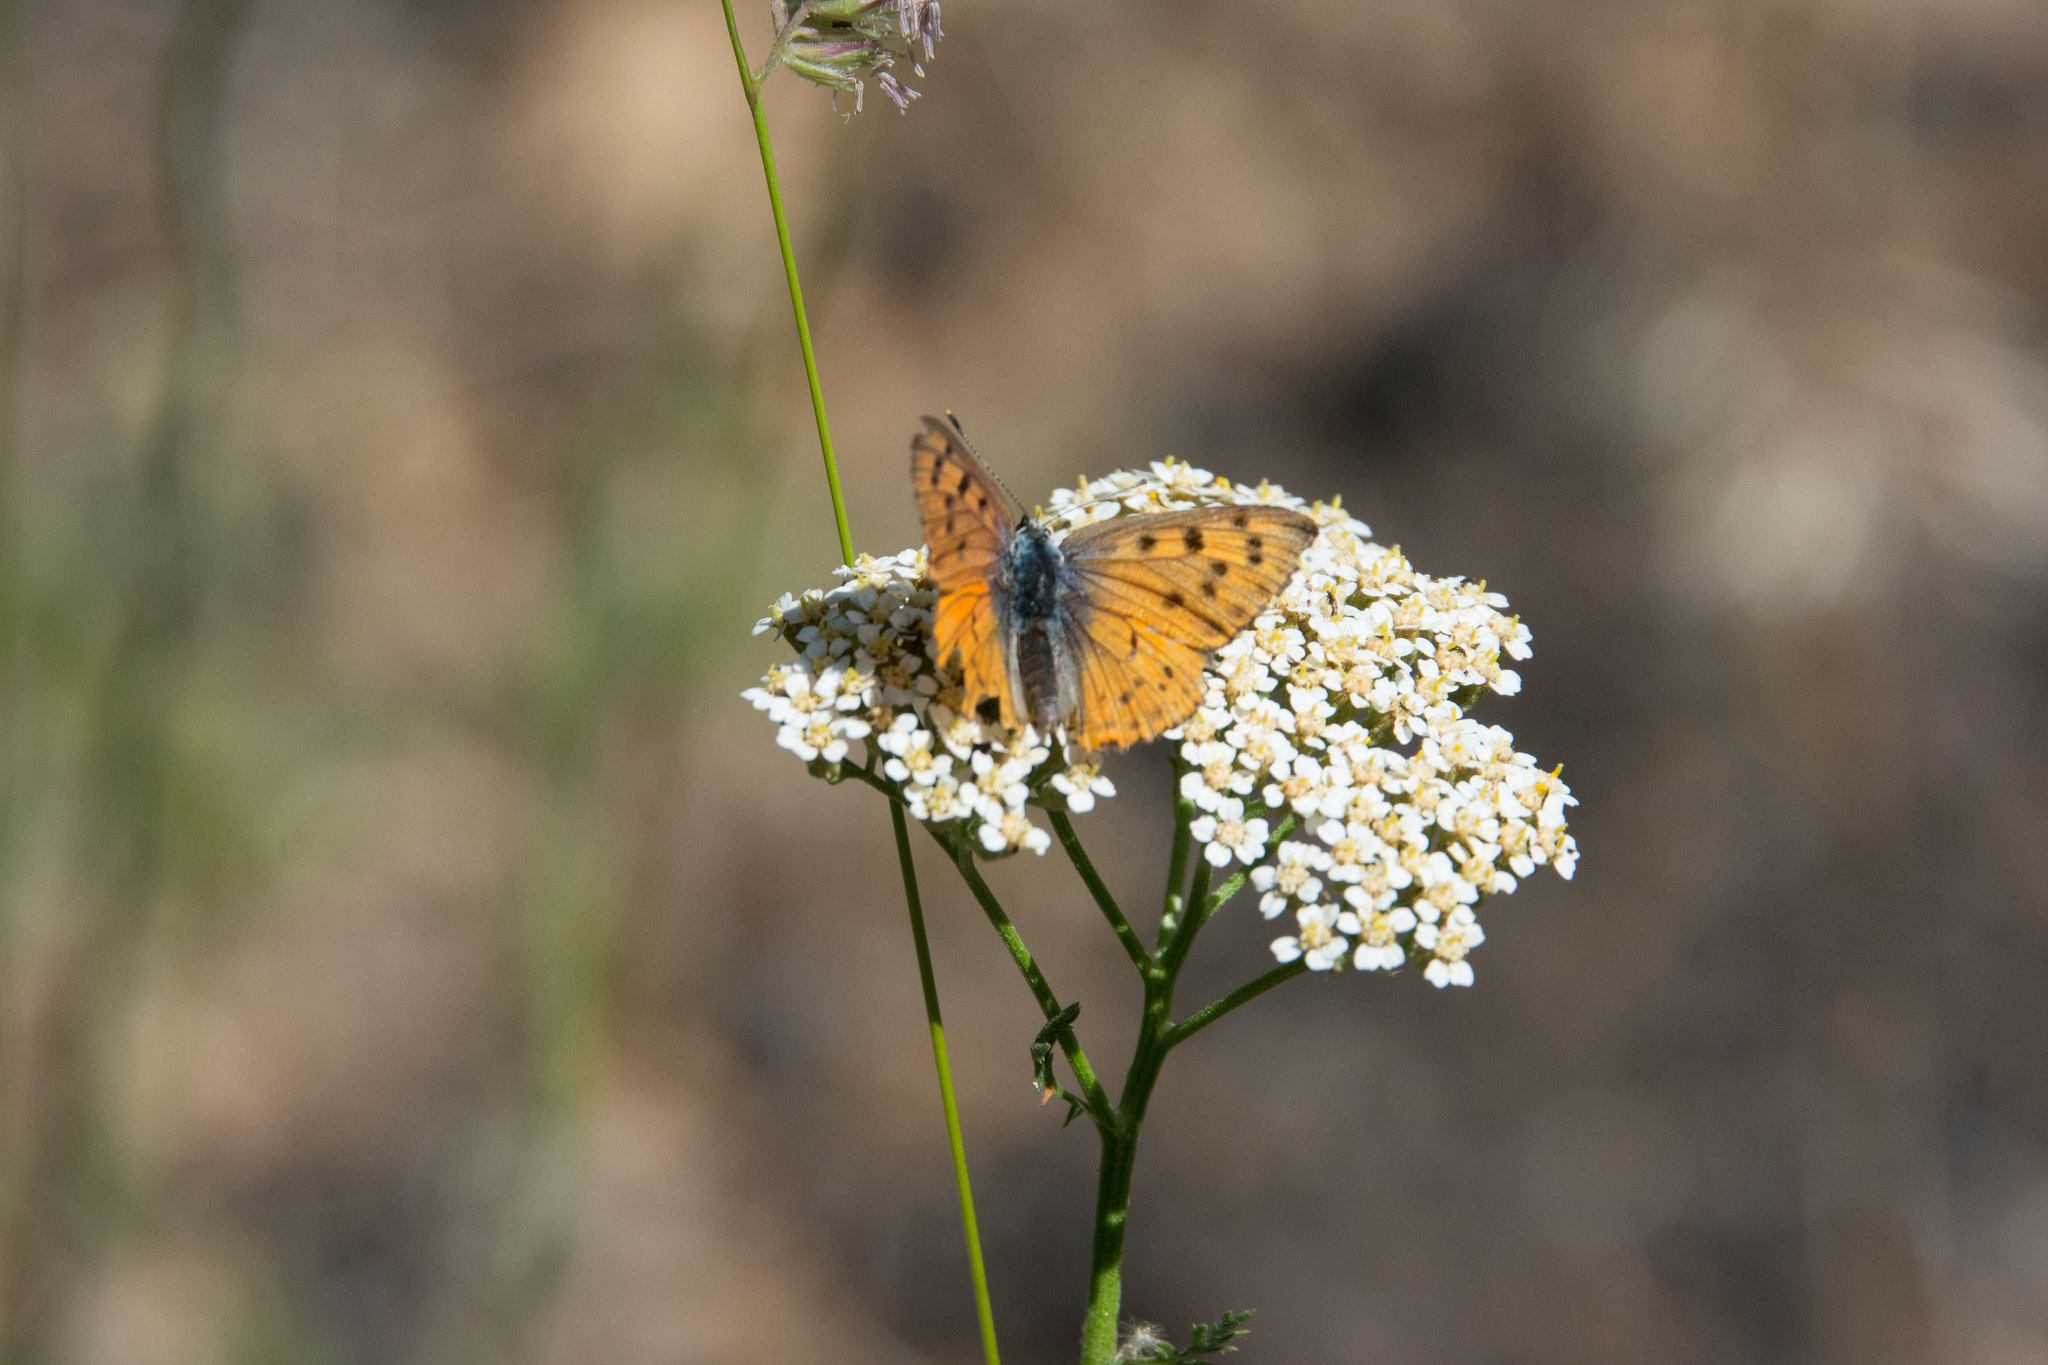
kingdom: Animalia
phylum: Arthropoda
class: Insecta
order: Lepidoptera
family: Lycaenidae
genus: Lycaena
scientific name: Lycaena alciphron
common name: Purple-shot copper
